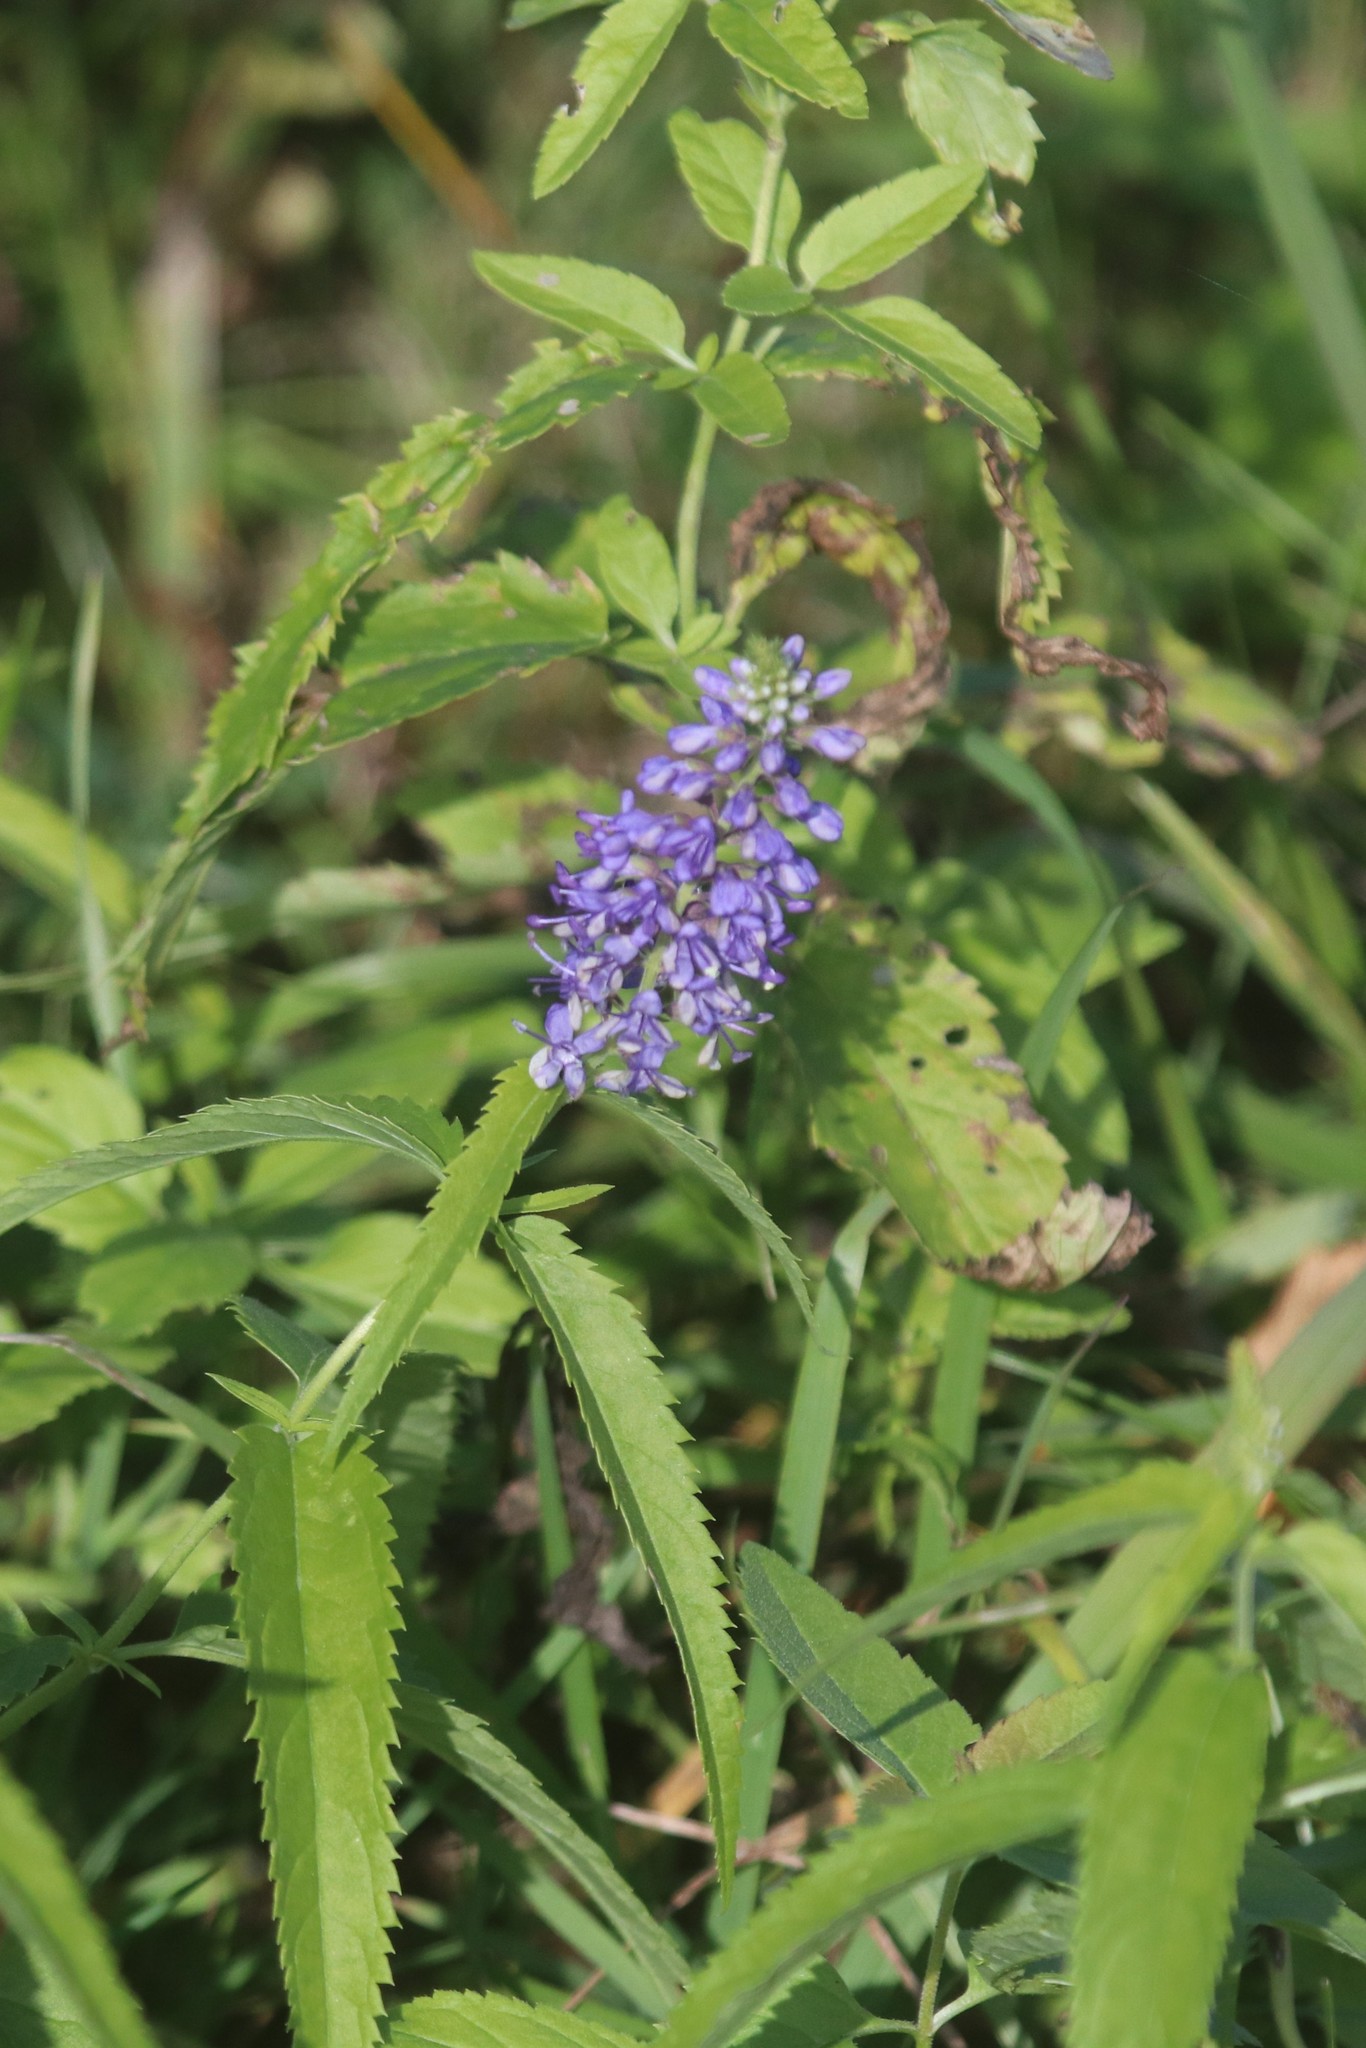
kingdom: Plantae
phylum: Tracheophyta
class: Magnoliopsida
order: Lamiales
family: Plantaginaceae
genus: Veronica
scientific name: Veronica longifolia
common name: Garden speedwell
